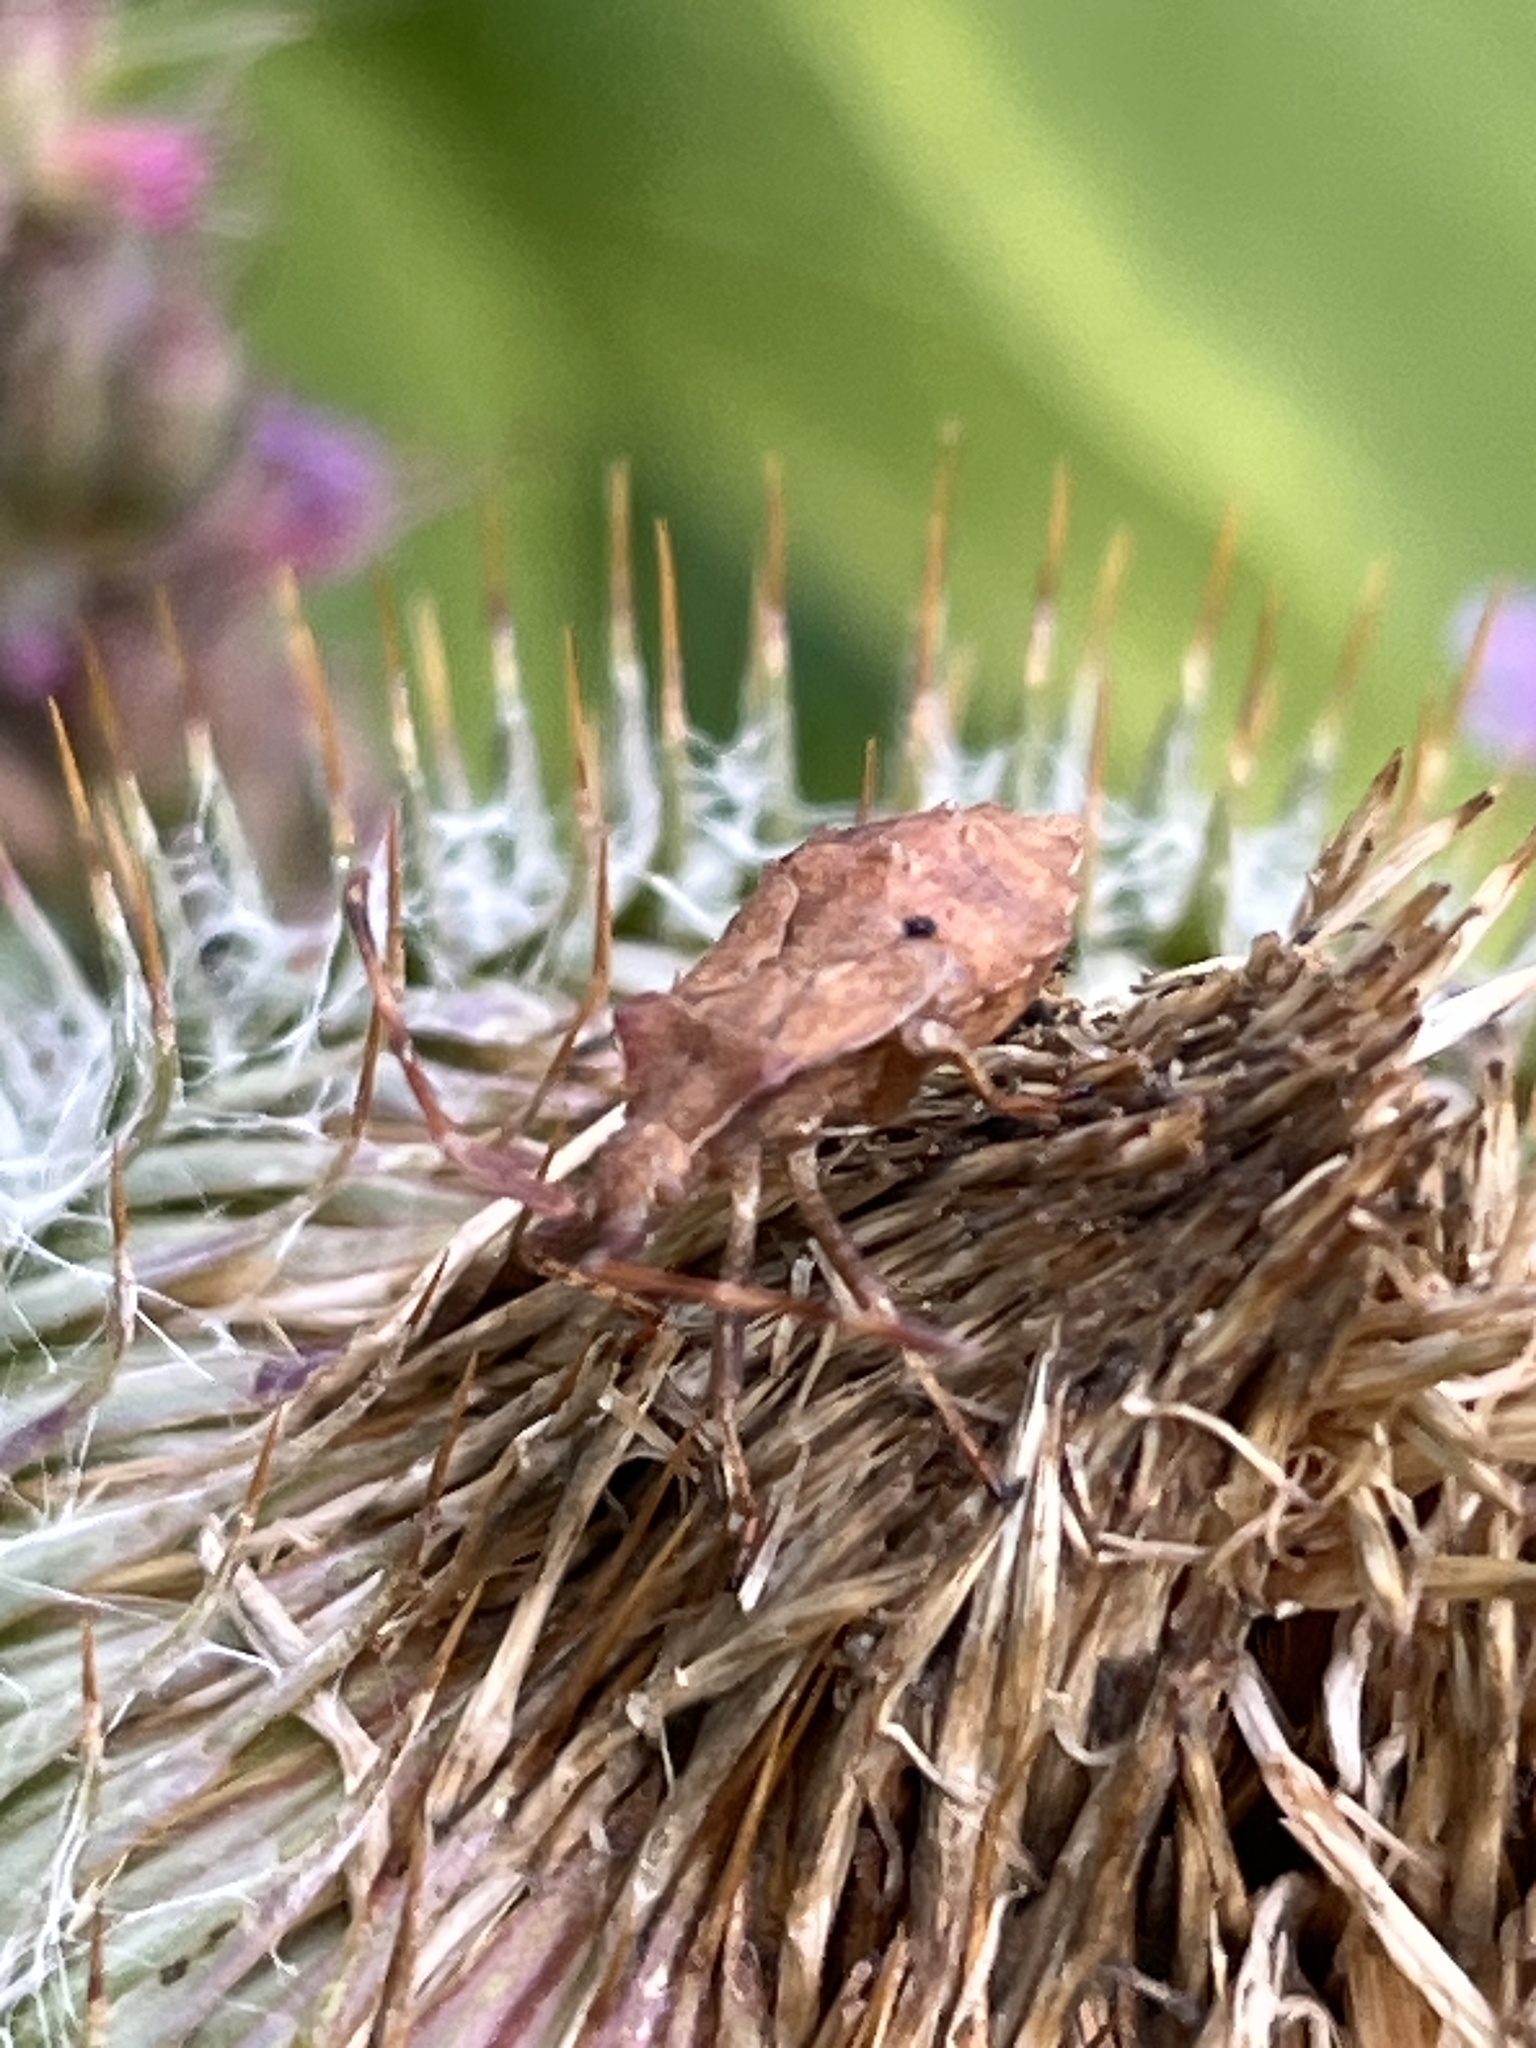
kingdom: Animalia
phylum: Arthropoda
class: Insecta
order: Hemiptera
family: Coreidae
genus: Coreus
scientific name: Coreus marginatus
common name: Dock bug
